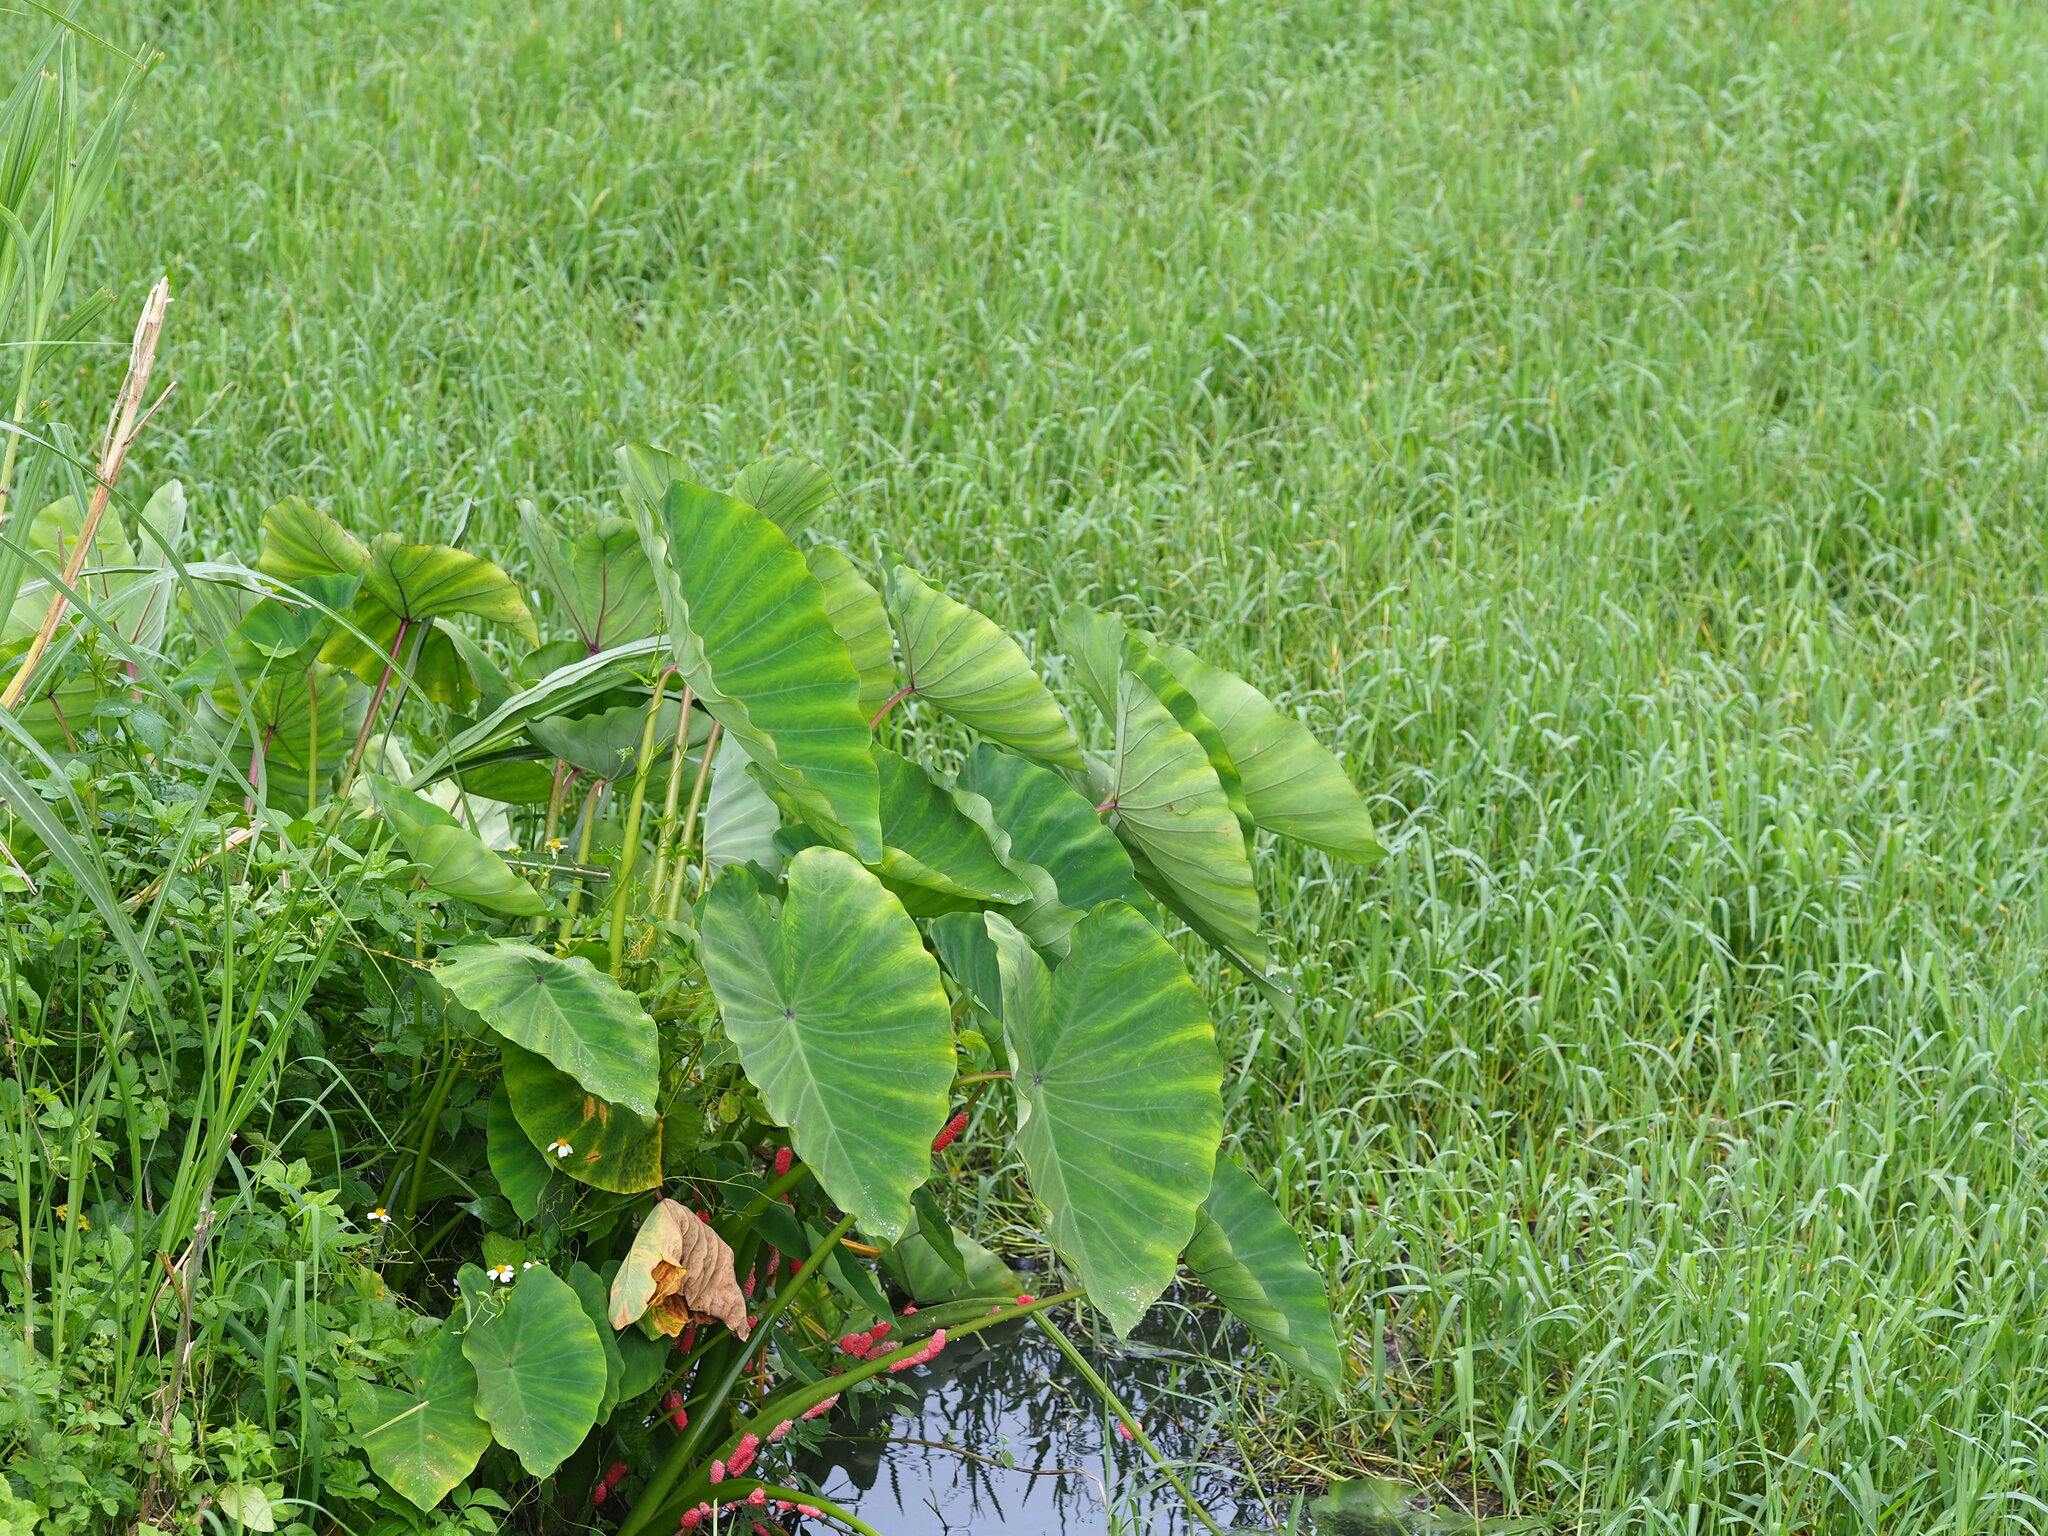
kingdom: Plantae
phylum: Tracheophyta
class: Liliopsida
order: Alismatales
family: Araceae
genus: Colocasia
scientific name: Colocasia esculenta
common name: Taro
